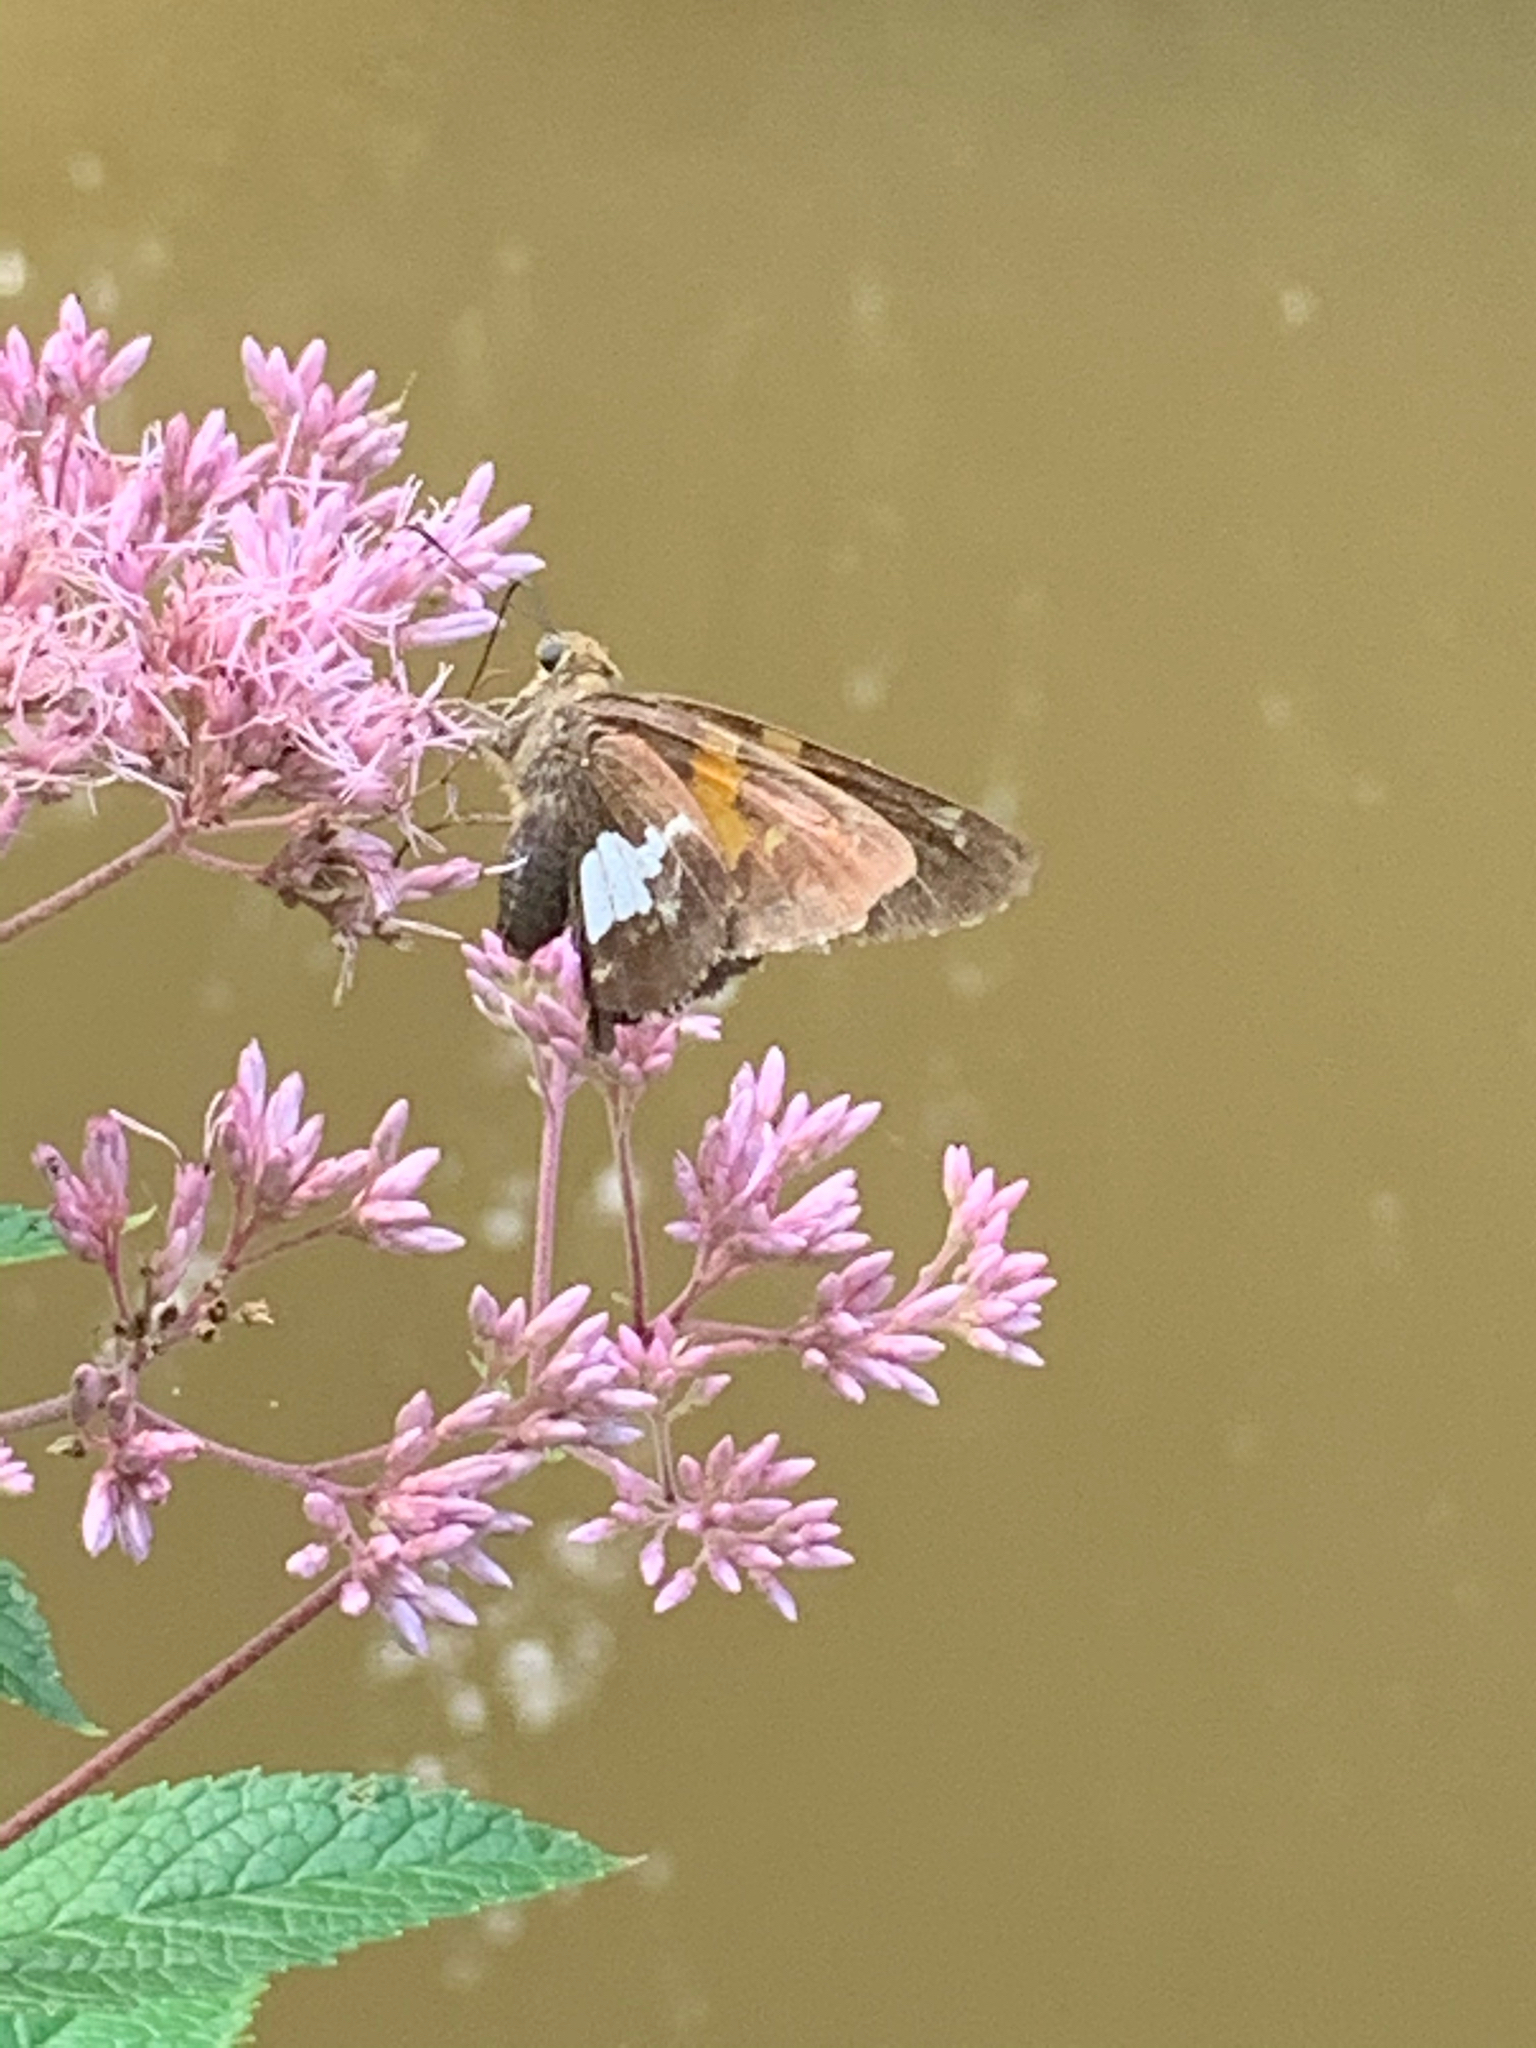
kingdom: Animalia
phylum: Arthropoda
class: Insecta
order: Lepidoptera
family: Hesperiidae
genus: Epargyreus
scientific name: Epargyreus clarus
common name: Silver-spotted skipper
